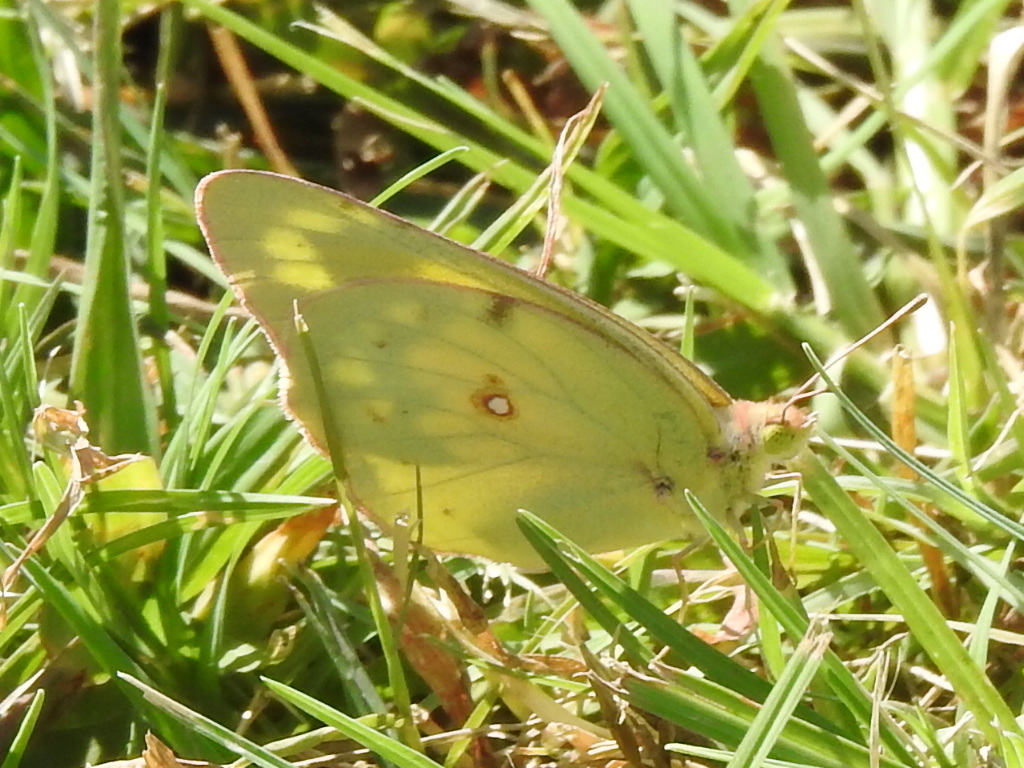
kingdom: Animalia
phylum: Arthropoda
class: Insecta
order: Lepidoptera
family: Pieridae
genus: Colias
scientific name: Colias eurytheme
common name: Alfalfa butterfly
